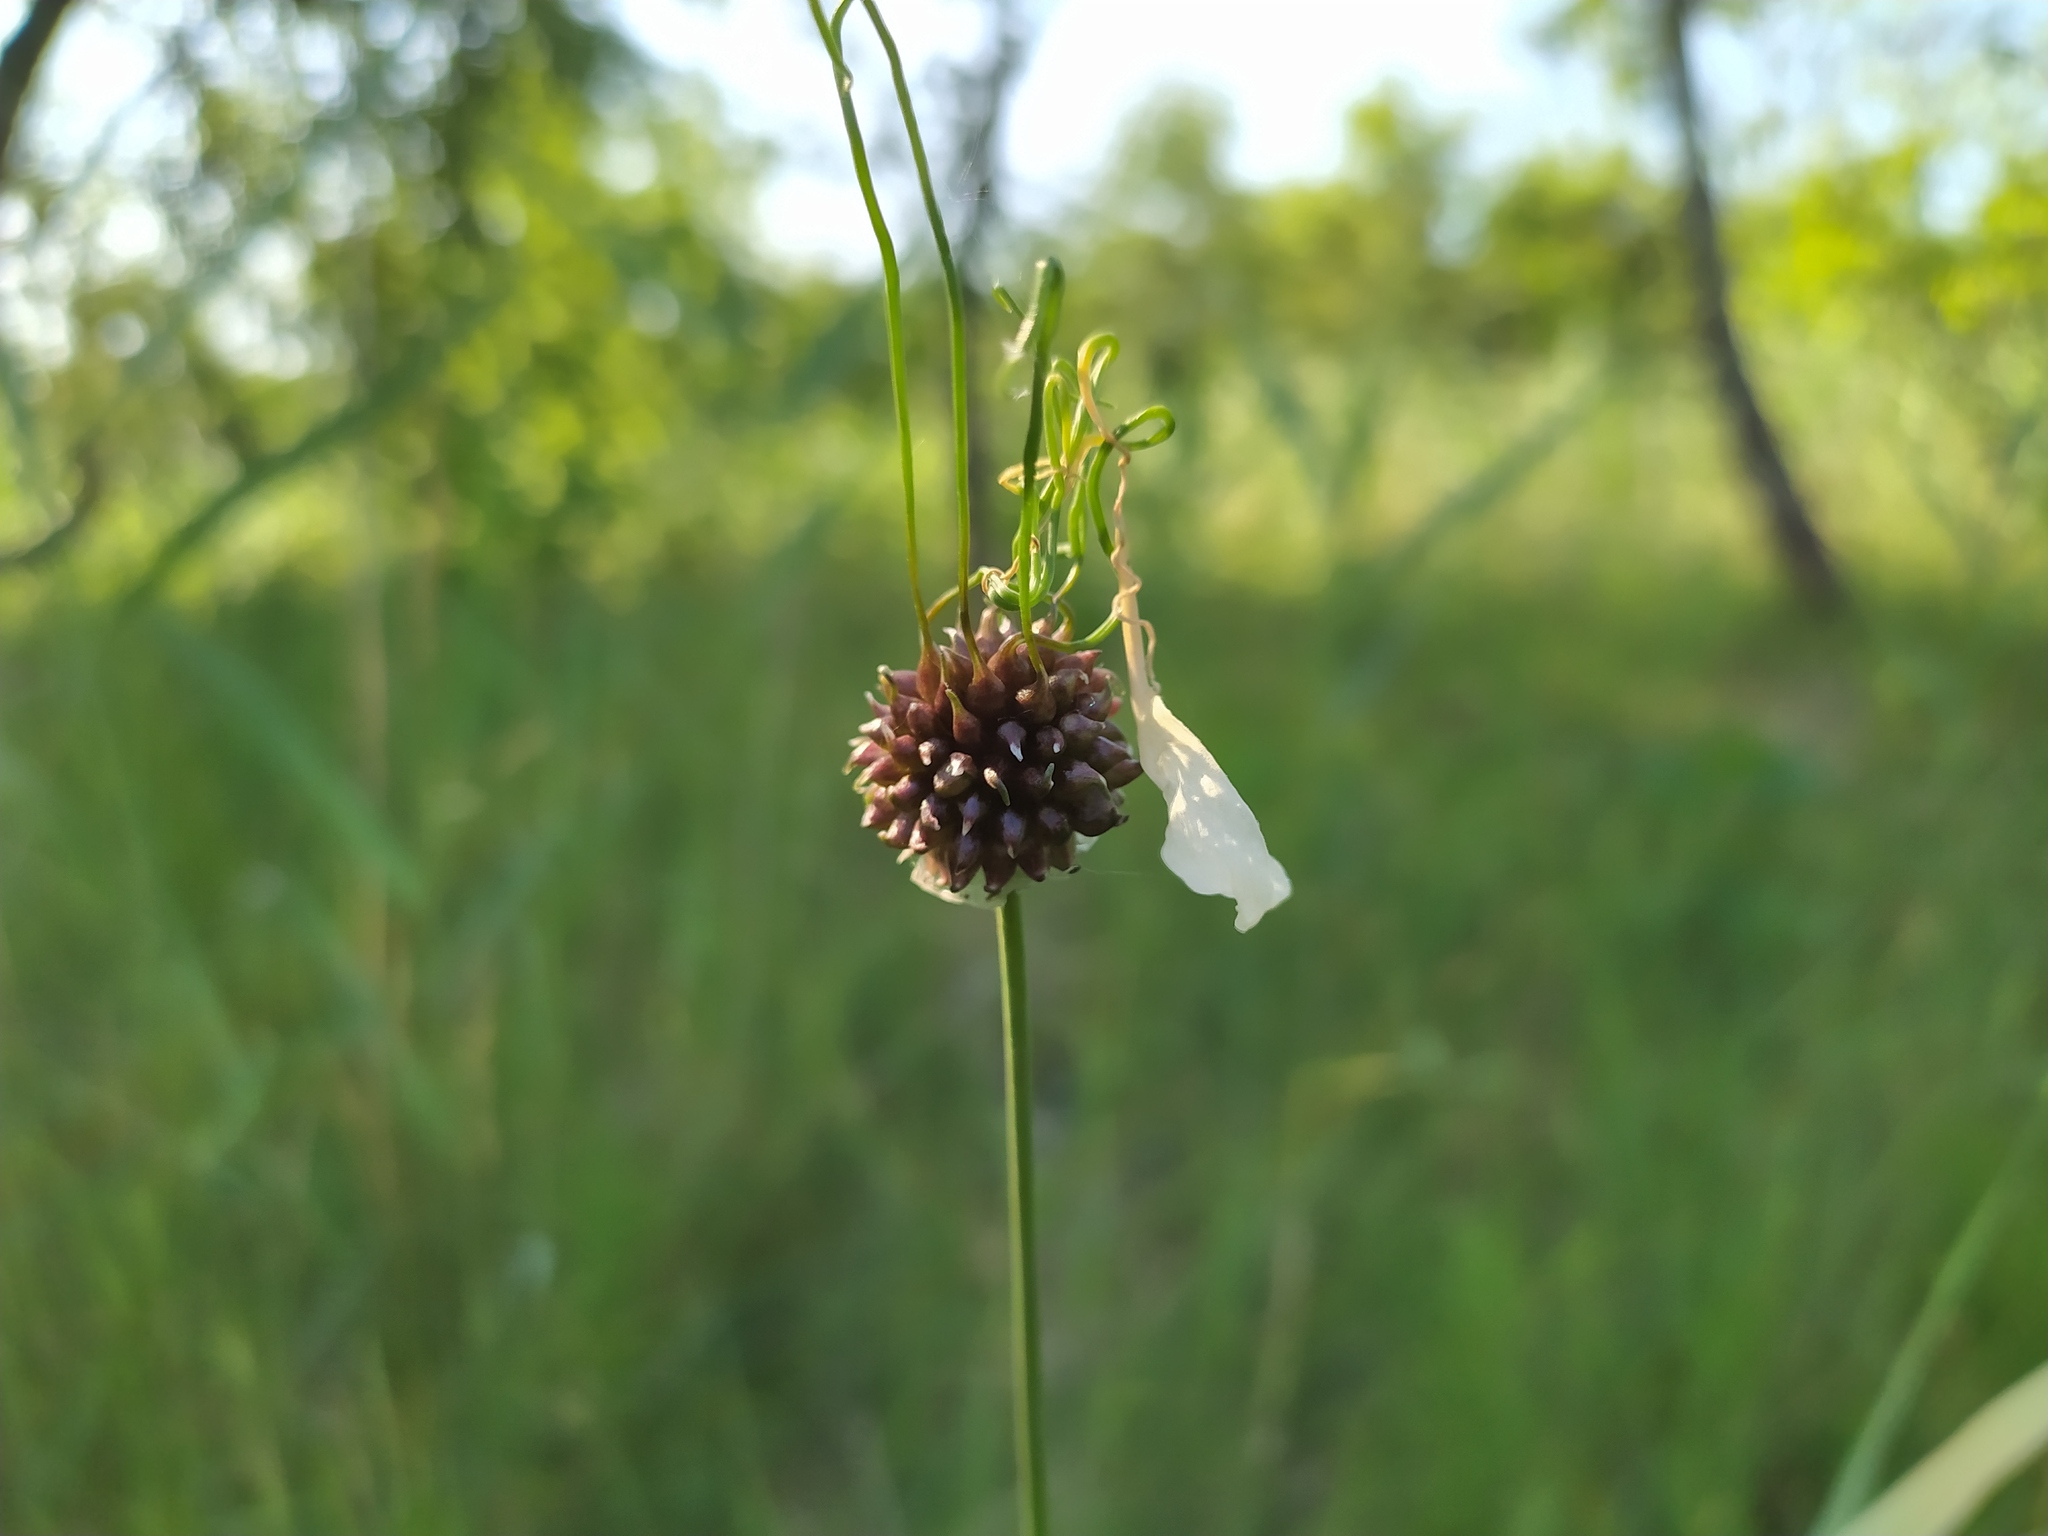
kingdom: Plantae
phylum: Tracheophyta
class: Liliopsida
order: Asparagales
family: Amaryllidaceae
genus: Allium
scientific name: Allium vineale
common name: Crow garlic
